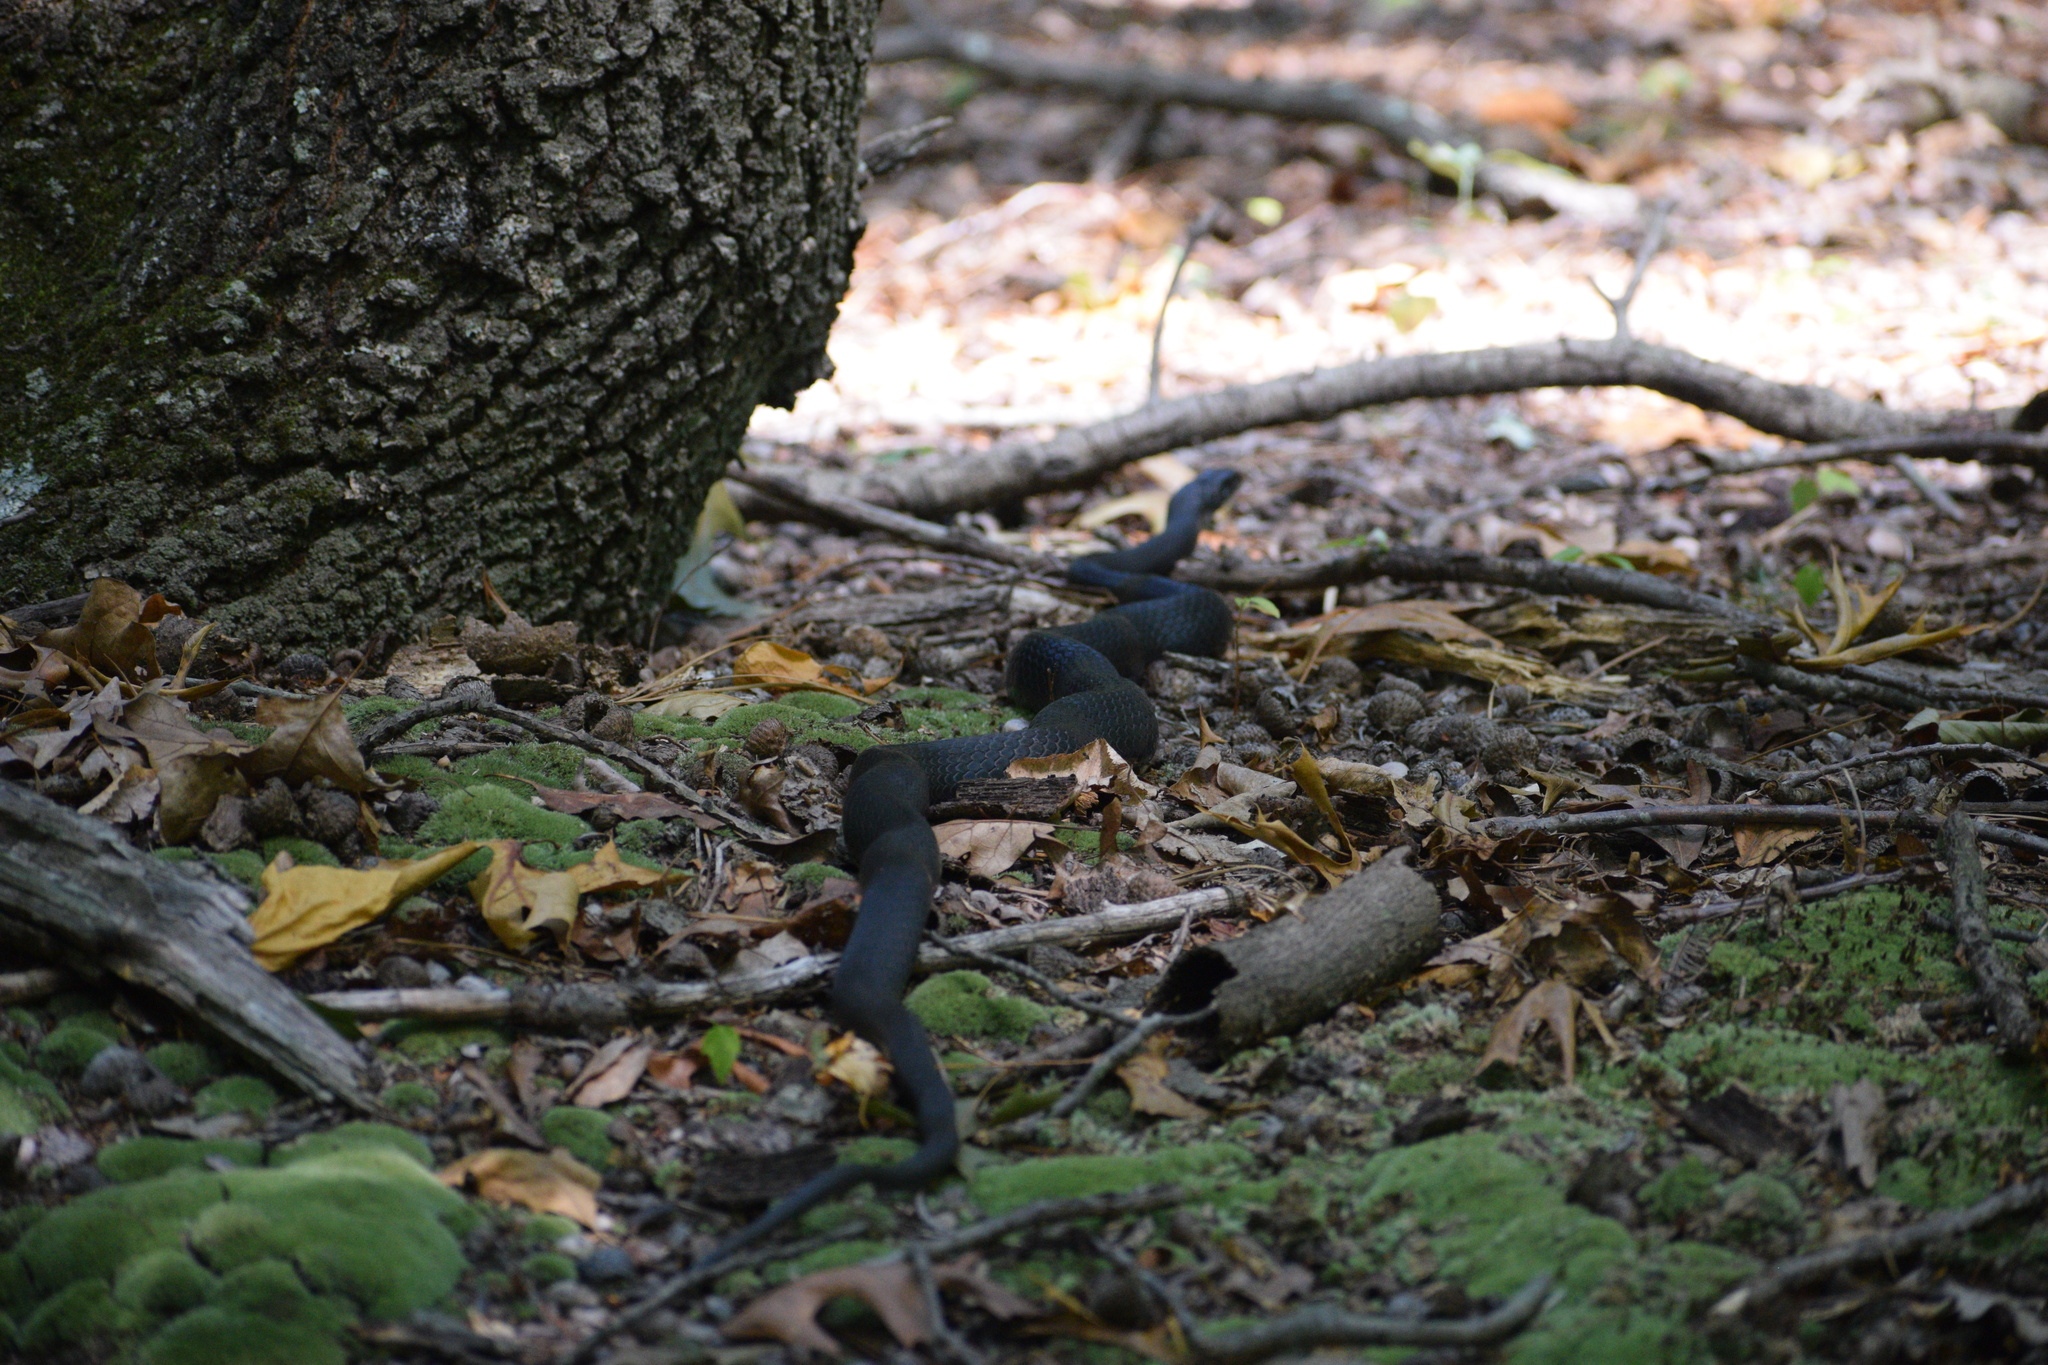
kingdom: Animalia
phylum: Chordata
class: Squamata
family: Colubridae
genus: Coluber
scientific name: Coluber constrictor
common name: Eastern racer
